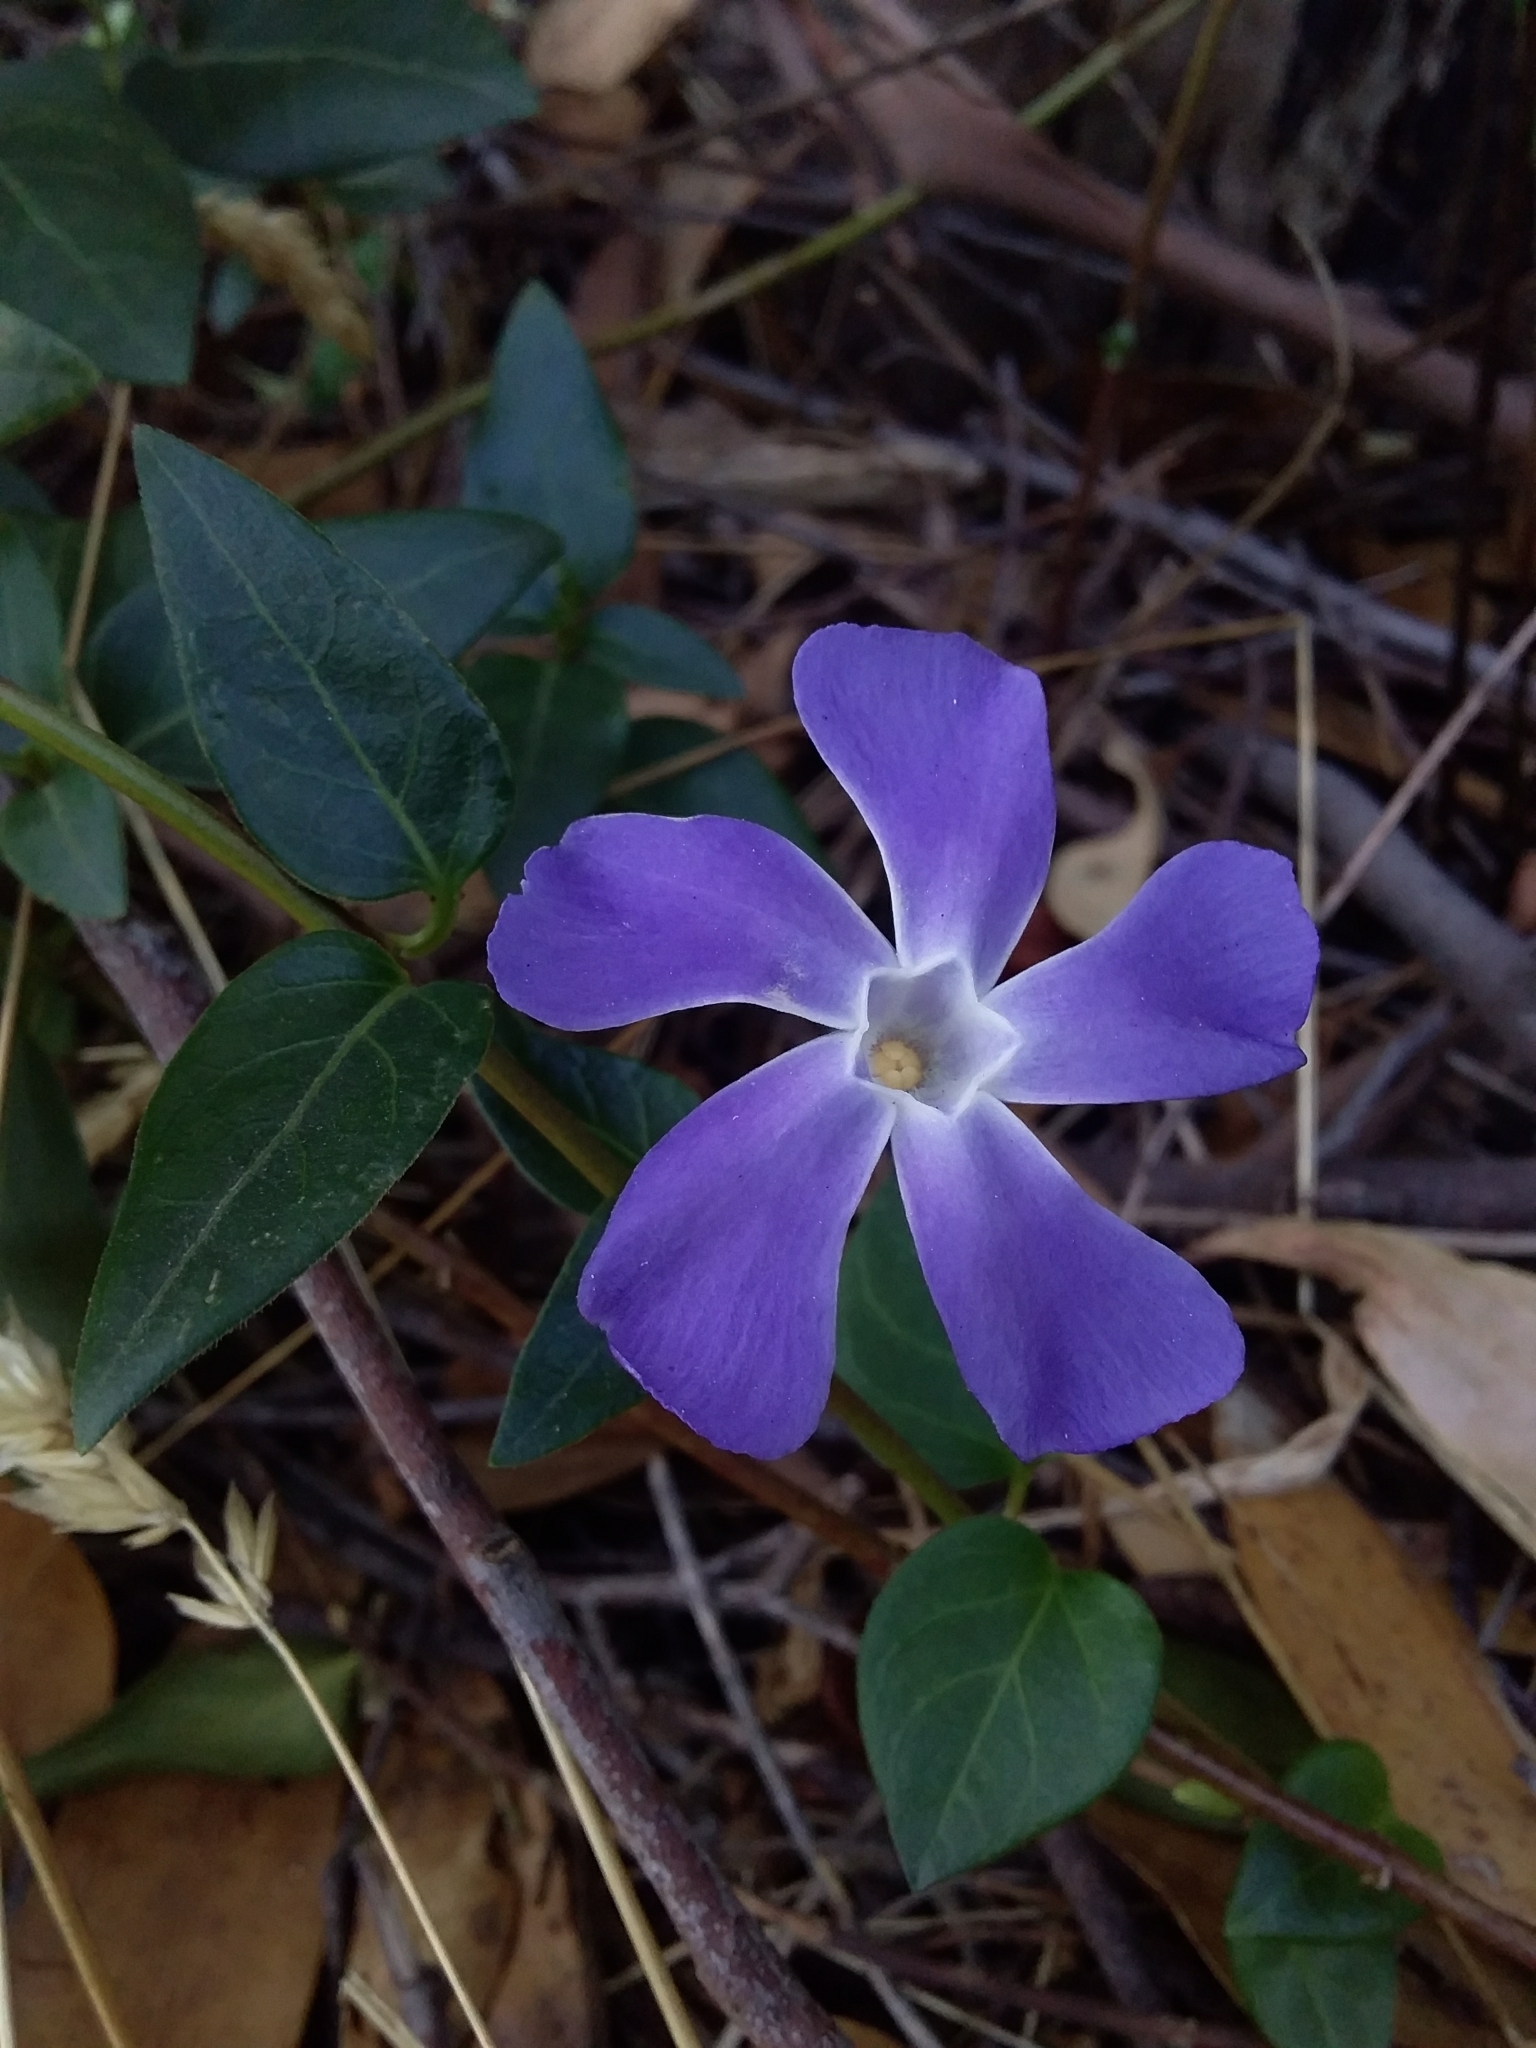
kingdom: Plantae
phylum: Tracheophyta
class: Magnoliopsida
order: Gentianales
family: Apocynaceae
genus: Vinca
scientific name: Vinca major
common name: Greater periwinkle
